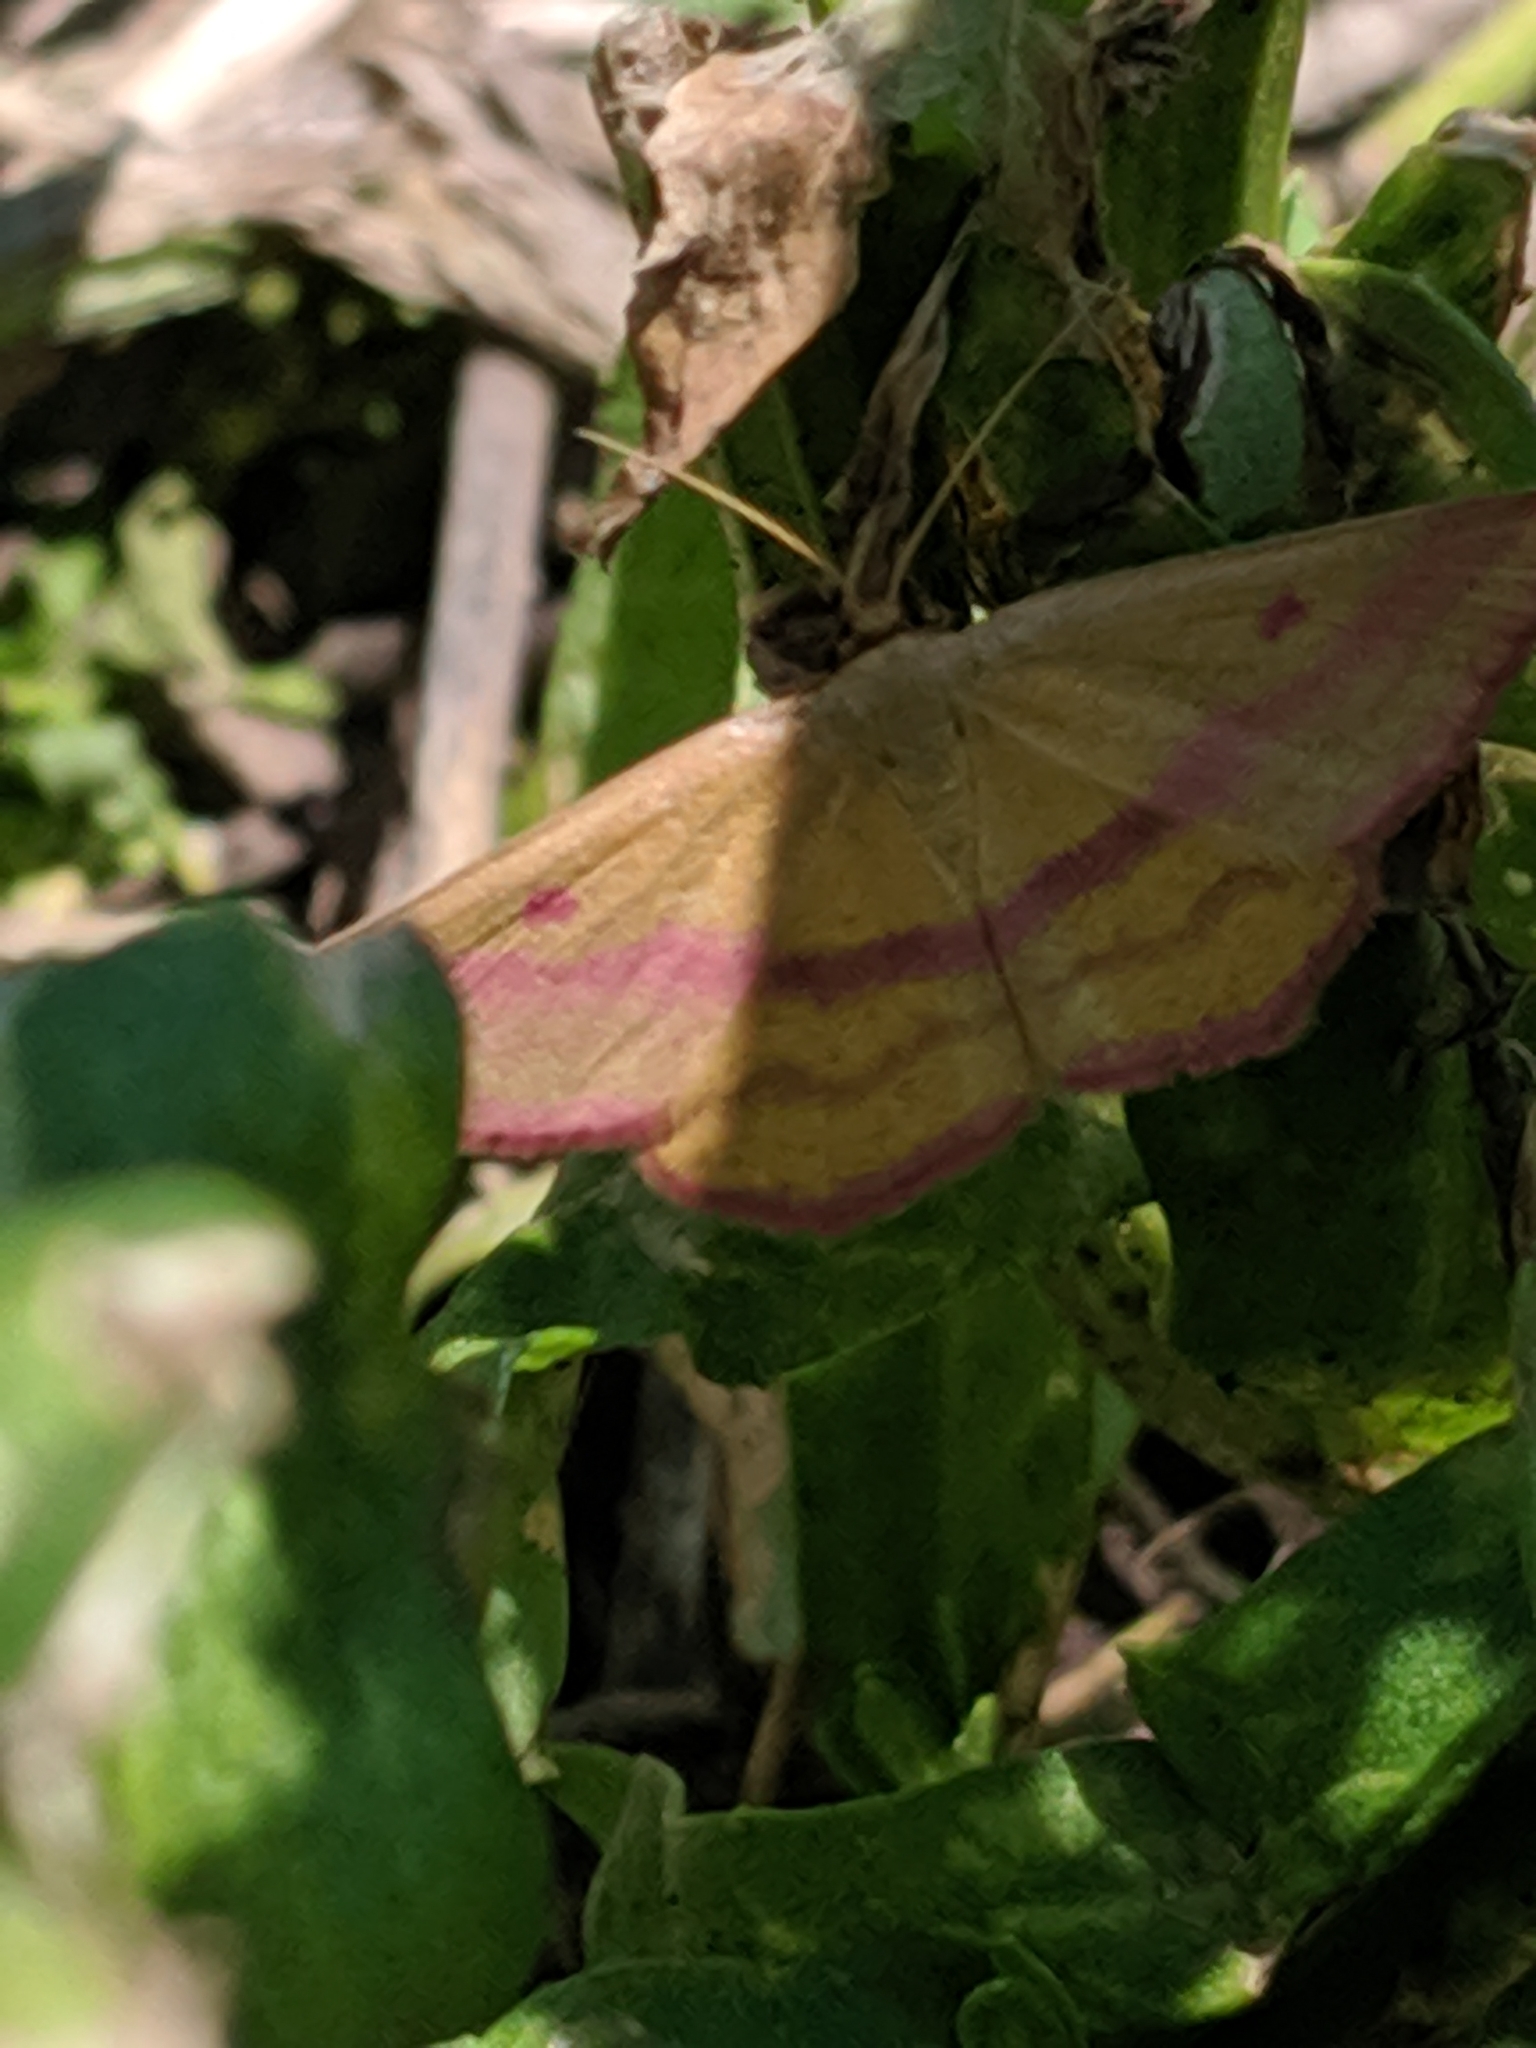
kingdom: Animalia
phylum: Arthropoda
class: Insecta
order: Lepidoptera
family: Geometridae
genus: Haematopis
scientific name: Haematopis grataria
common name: Chickweed geometer
